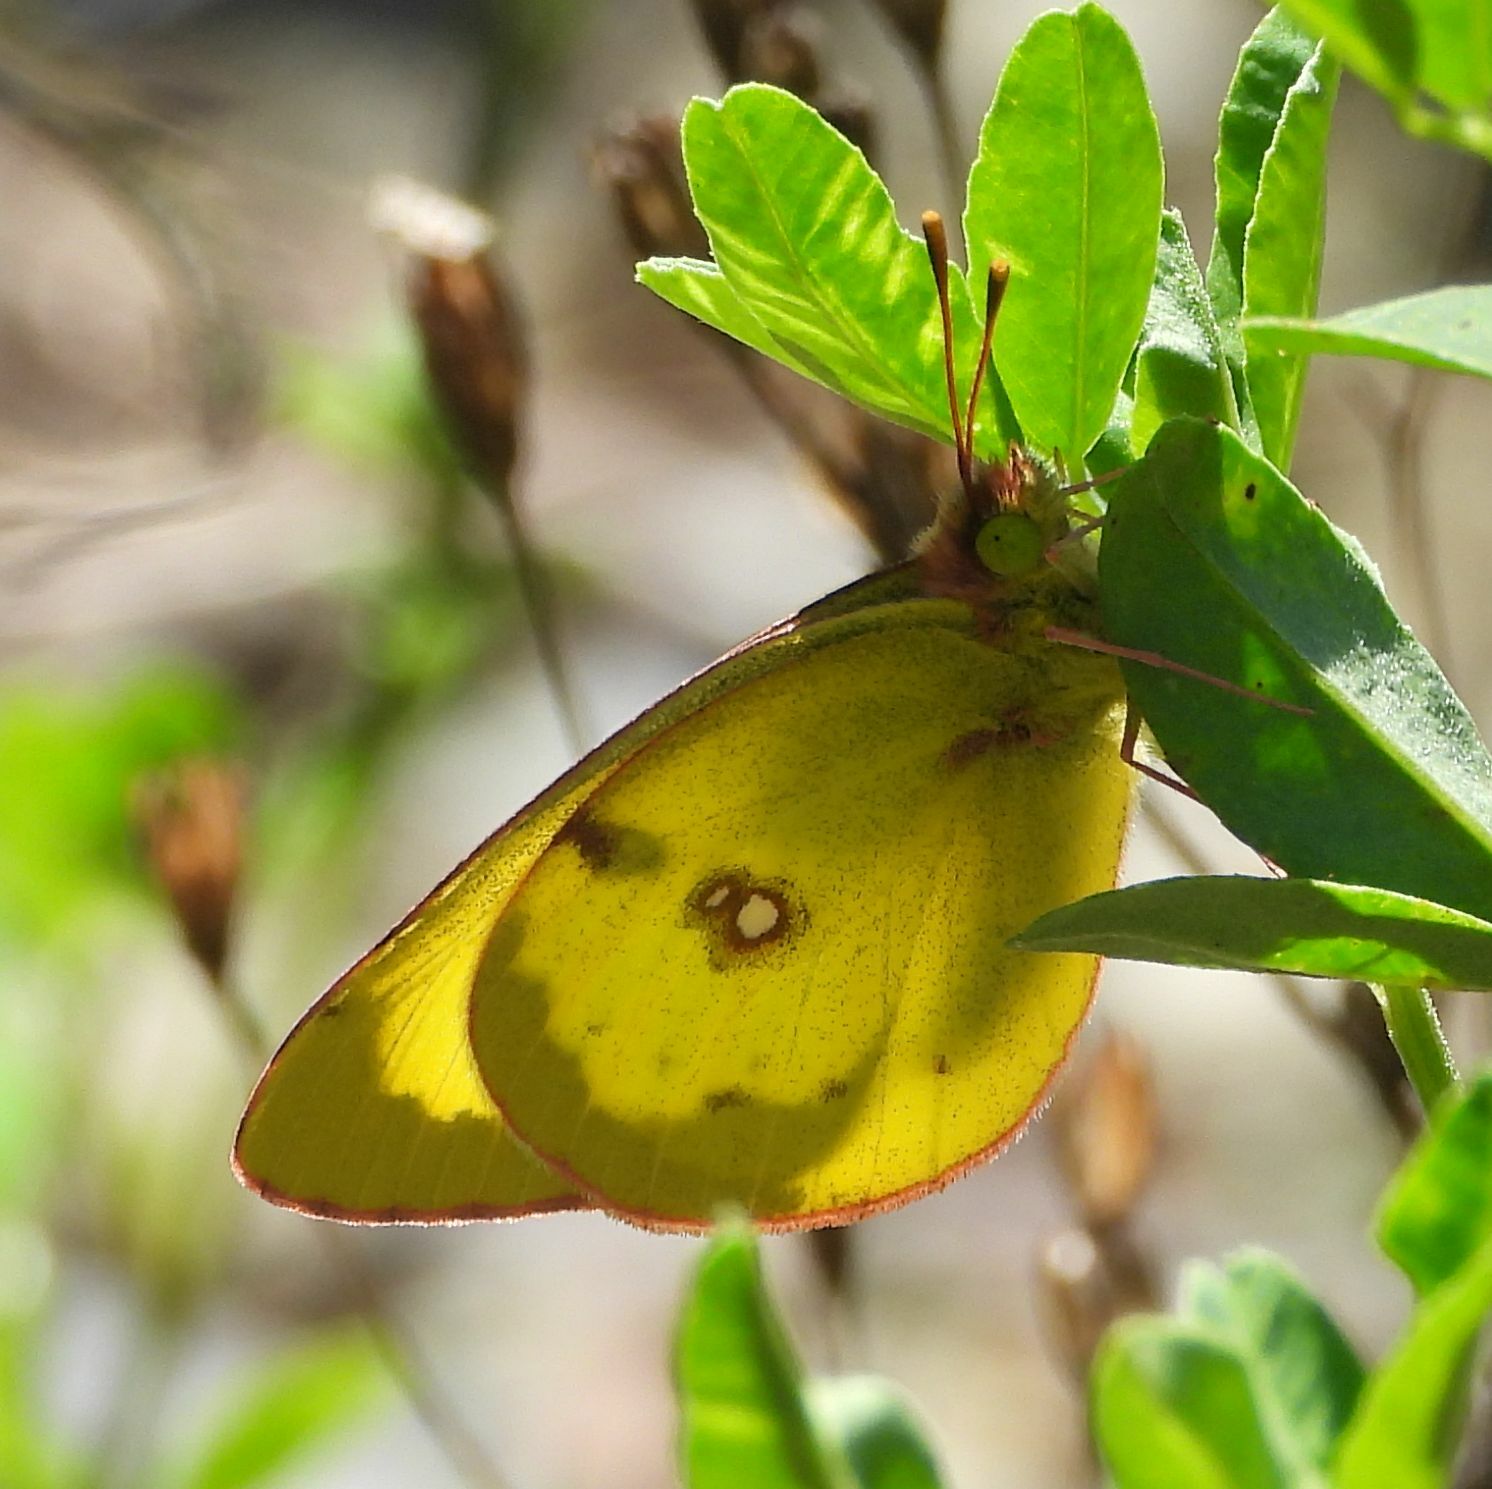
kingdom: Animalia
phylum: Arthropoda
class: Insecta
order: Lepidoptera
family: Pieridae
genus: Colias
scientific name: Colias philodice
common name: Clouded sulphur
